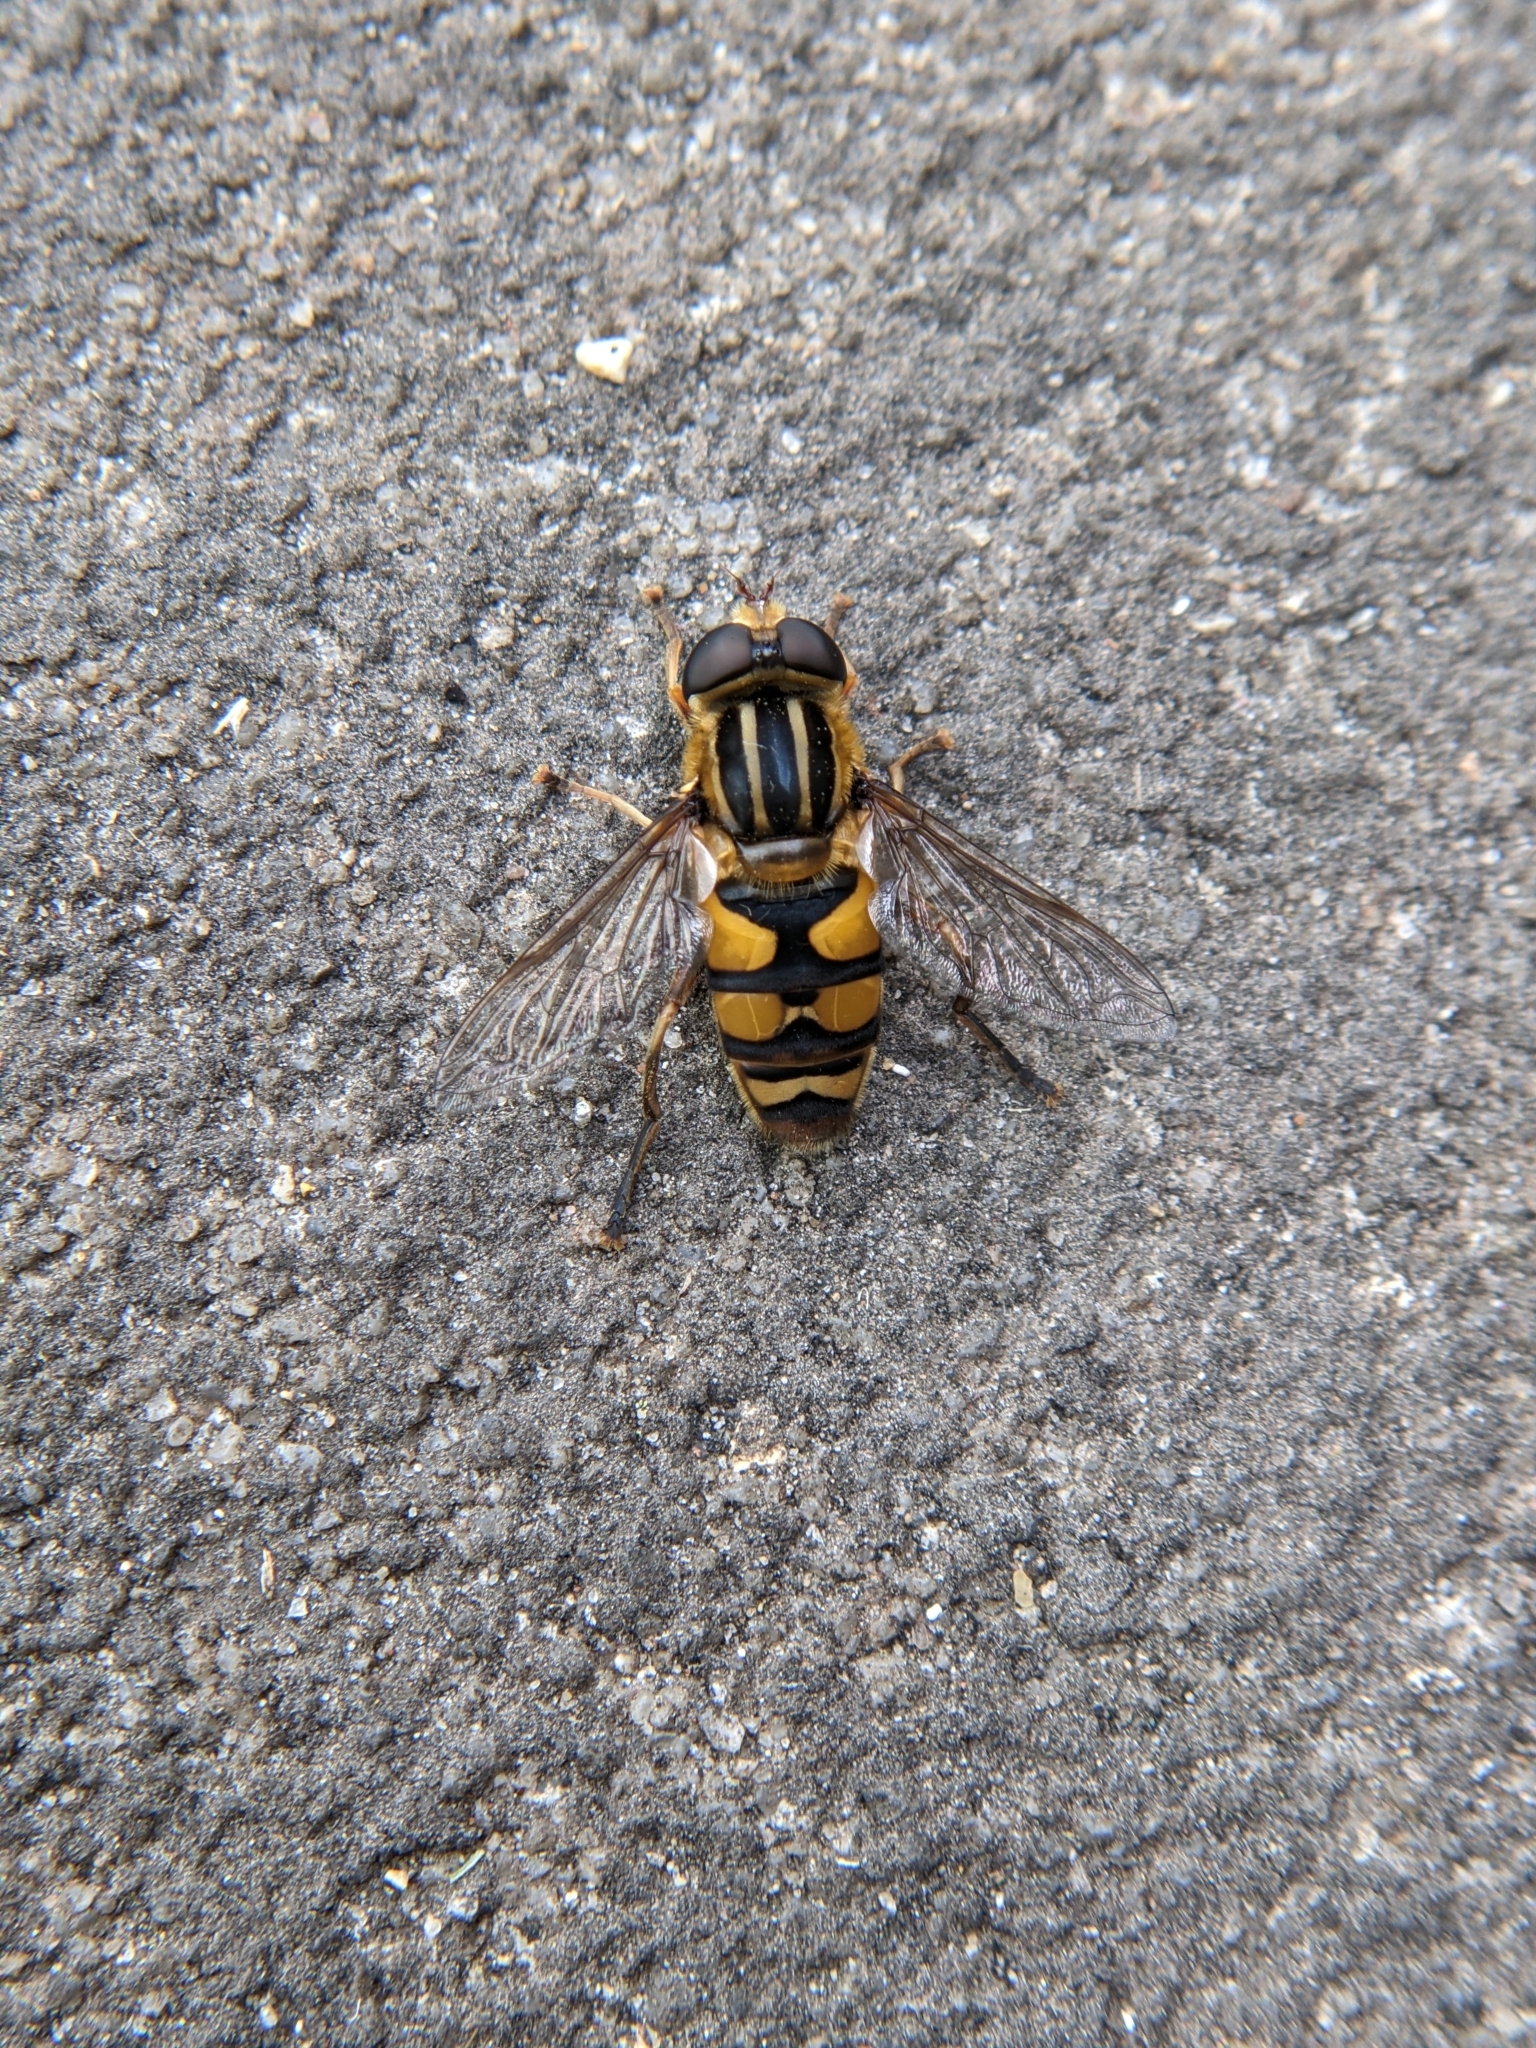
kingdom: Animalia
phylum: Arthropoda
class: Insecta
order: Diptera
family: Syrphidae
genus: Helophilus
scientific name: Helophilus fasciatus
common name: Narrow-headed marsh fly
